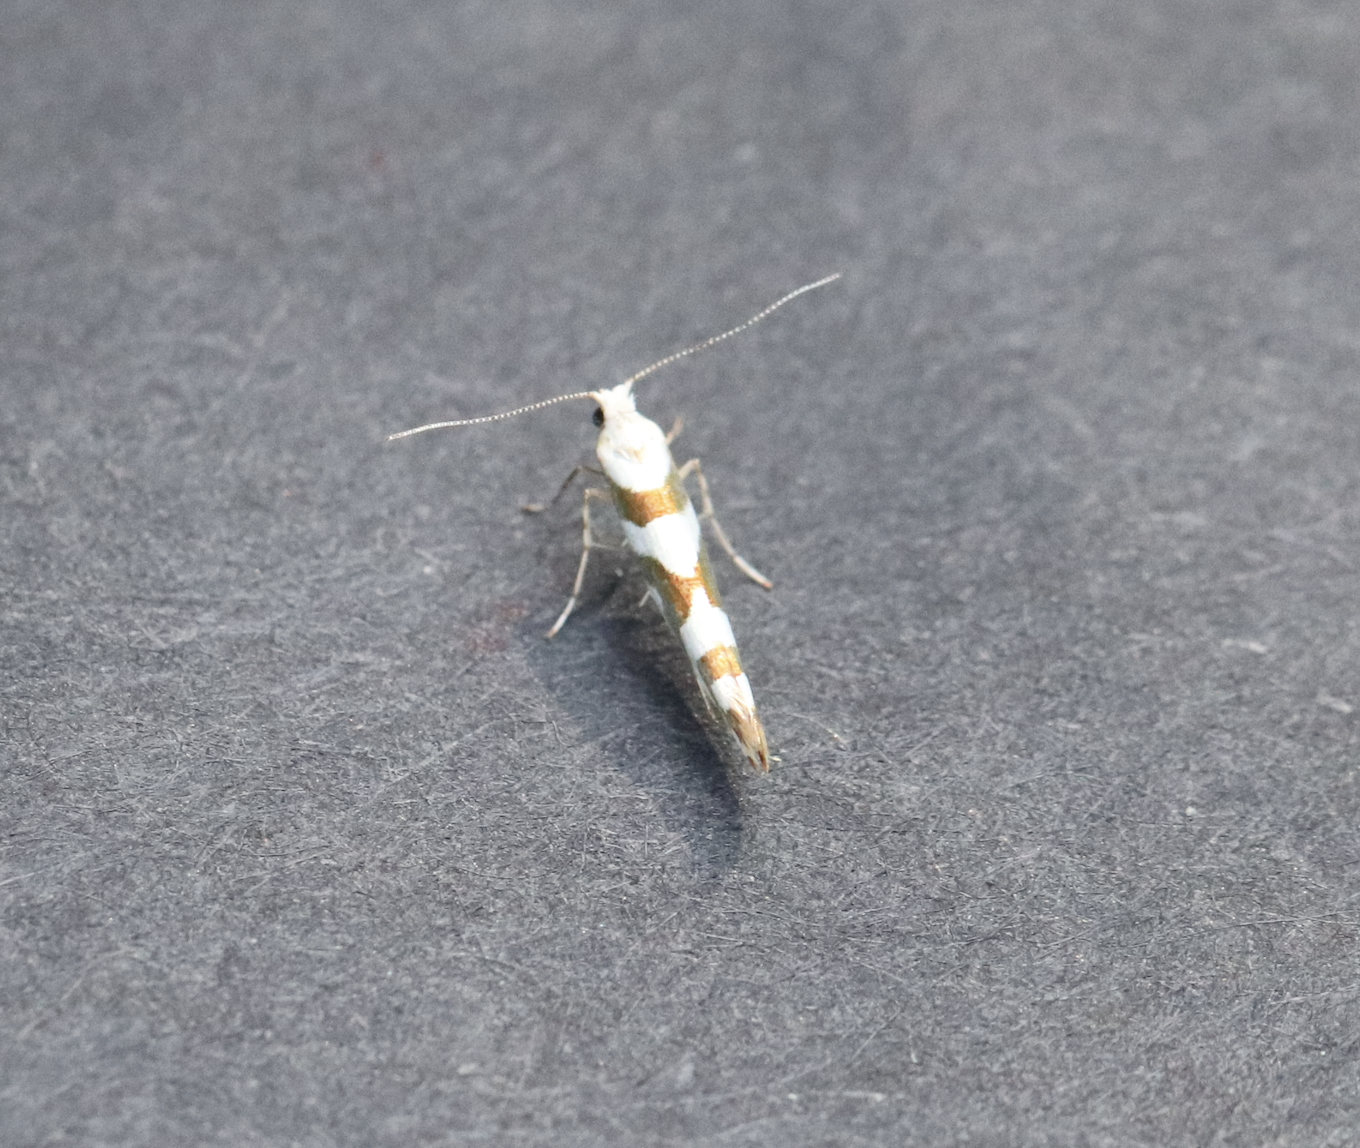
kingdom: Animalia
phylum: Arthropoda
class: Insecta
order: Lepidoptera
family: Argyresthiidae
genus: Argyresthia
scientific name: Argyresthia calliphanes
